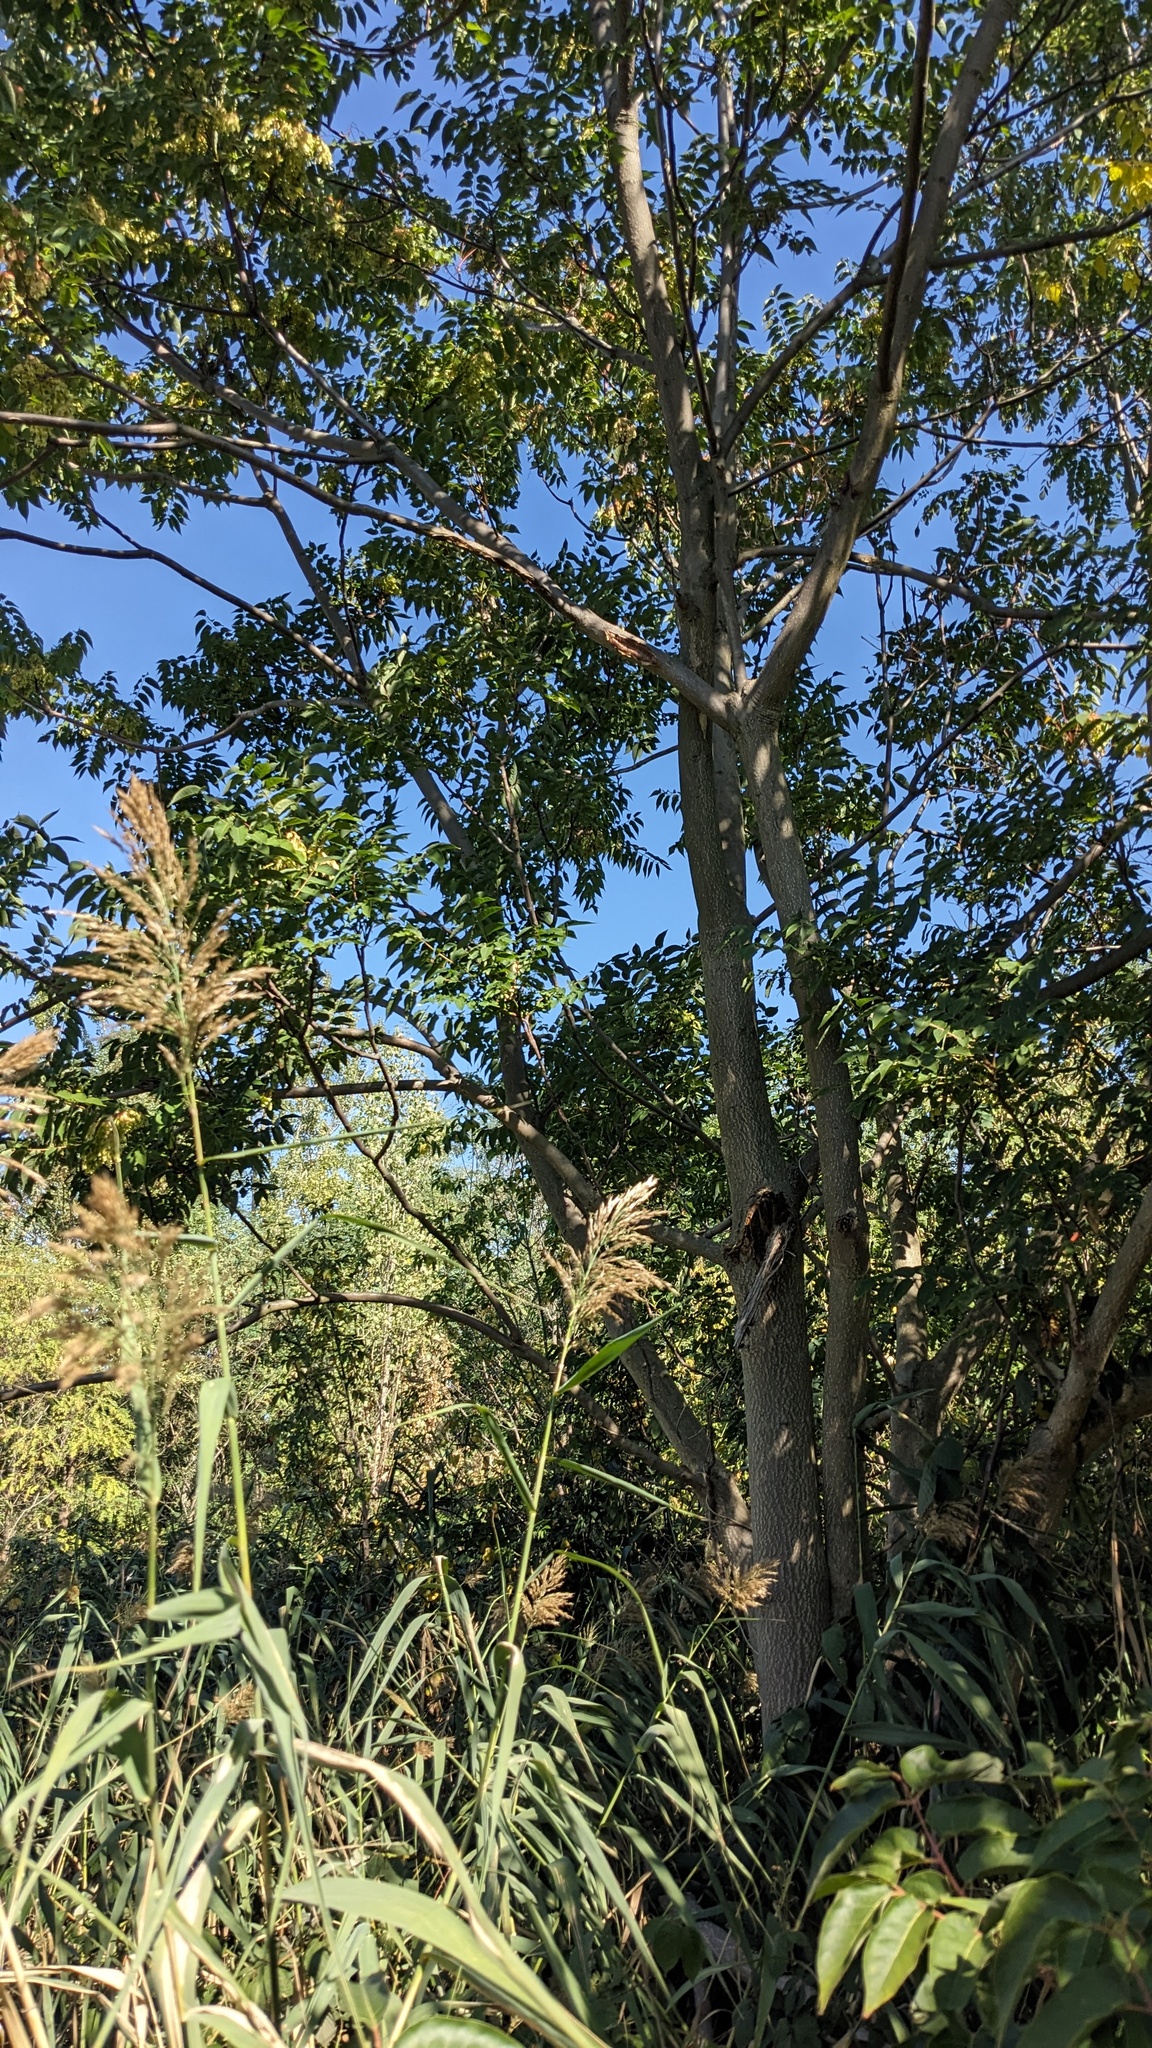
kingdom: Plantae
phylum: Tracheophyta
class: Magnoliopsida
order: Sapindales
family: Simaroubaceae
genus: Ailanthus
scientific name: Ailanthus altissima
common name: Tree-of-heaven
